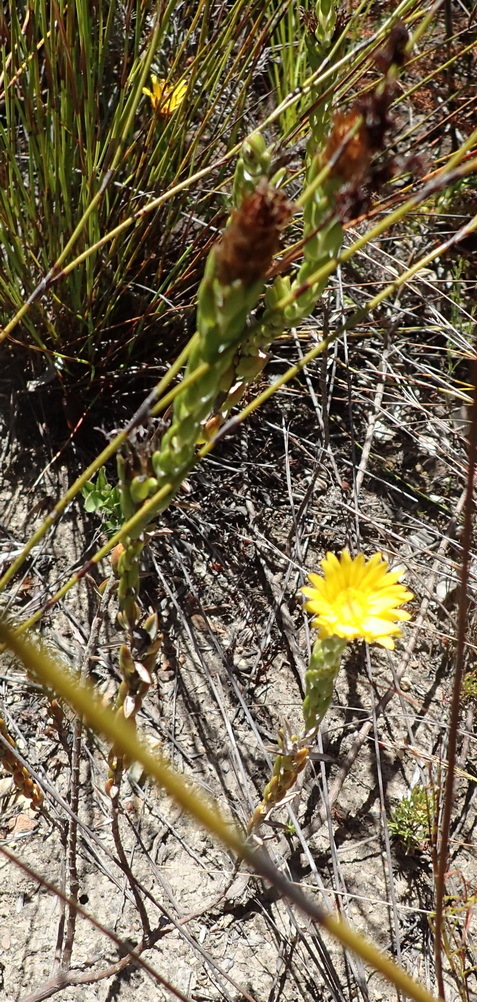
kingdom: Plantae
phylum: Tracheophyta
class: Magnoliopsida
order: Asterales
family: Asteraceae
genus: Oedera
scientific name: Oedera calycina
